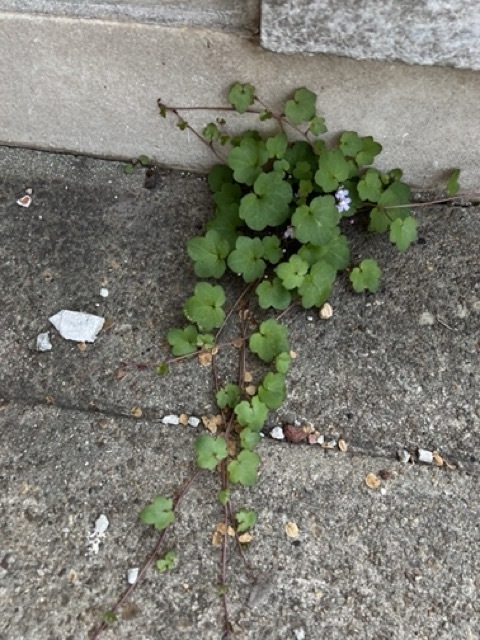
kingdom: Plantae
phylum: Tracheophyta
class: Magnoliopsida
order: Lamiales
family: Plantaginaceae
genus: Cymbalaria
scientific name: Cymbalaria muralis
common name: Ivy-leaved toadflax
